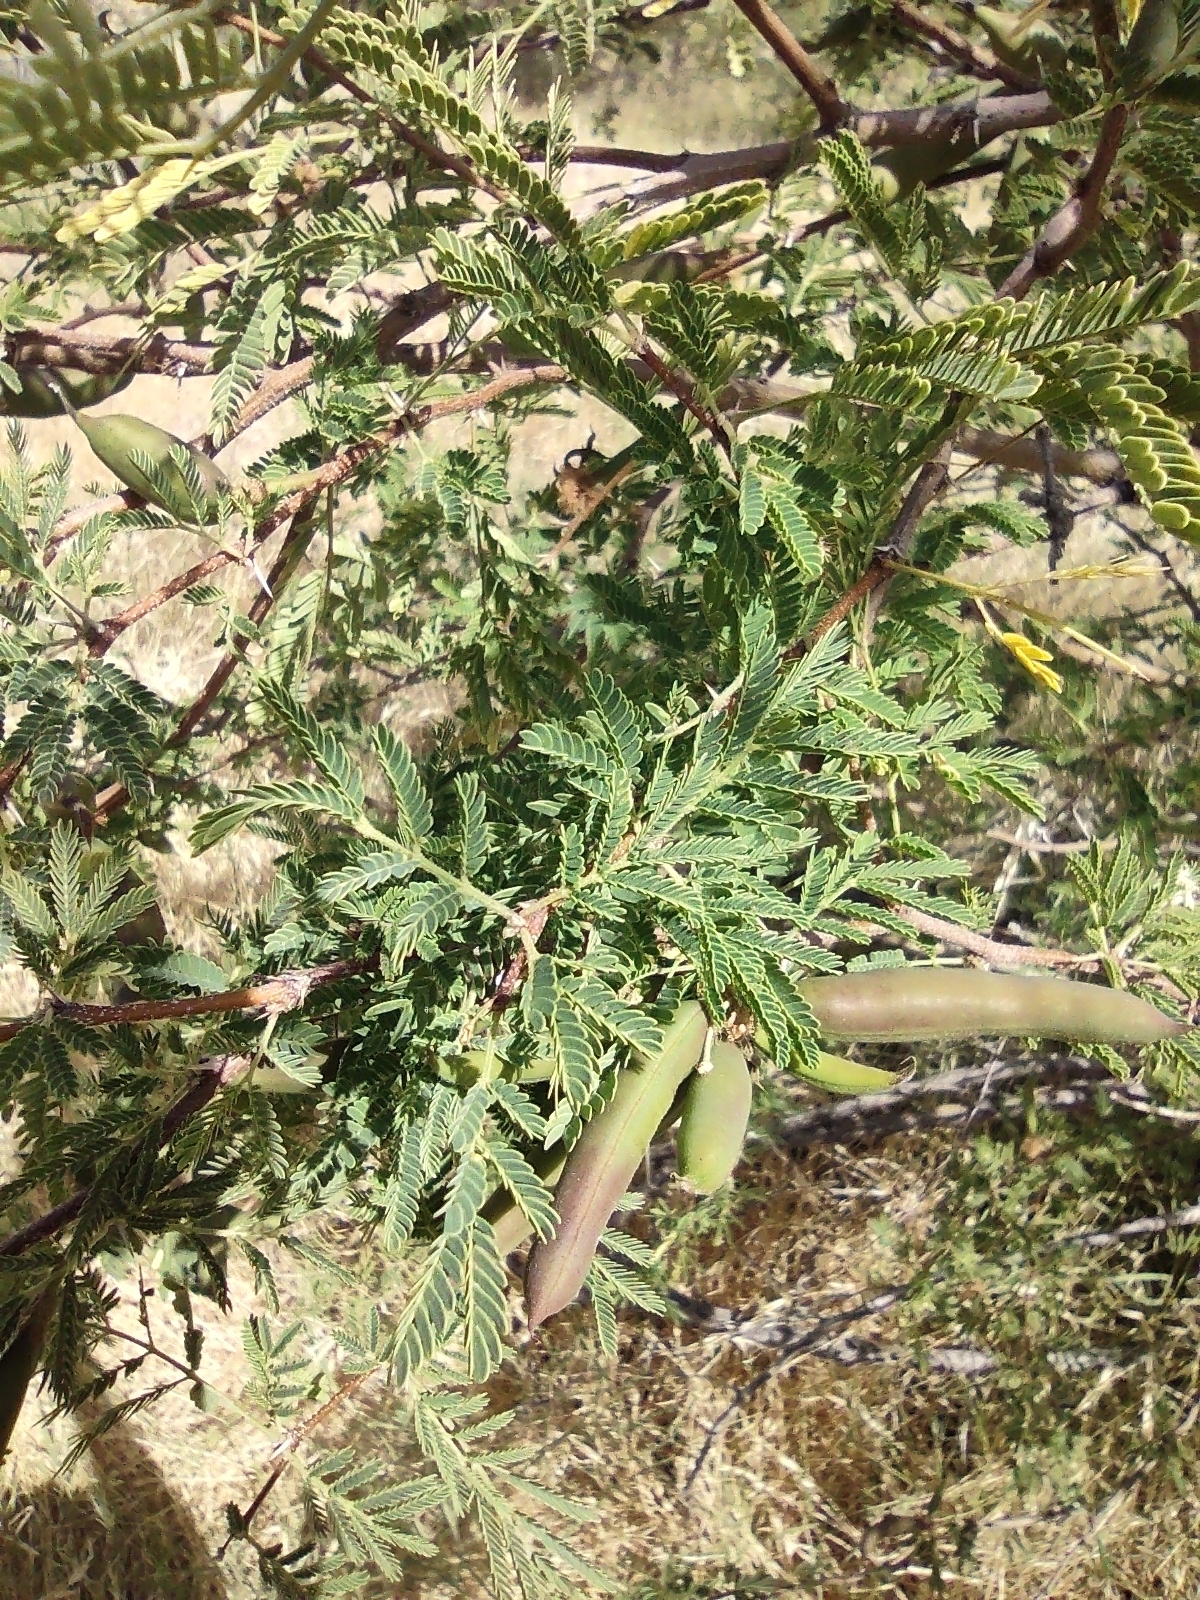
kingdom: Plantae
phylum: Tracheophyta
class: Magnoliopsida
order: Fabales
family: Fabaceae
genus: Vachellia
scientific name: Vachellia farnesiana
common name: Sweet acacia
